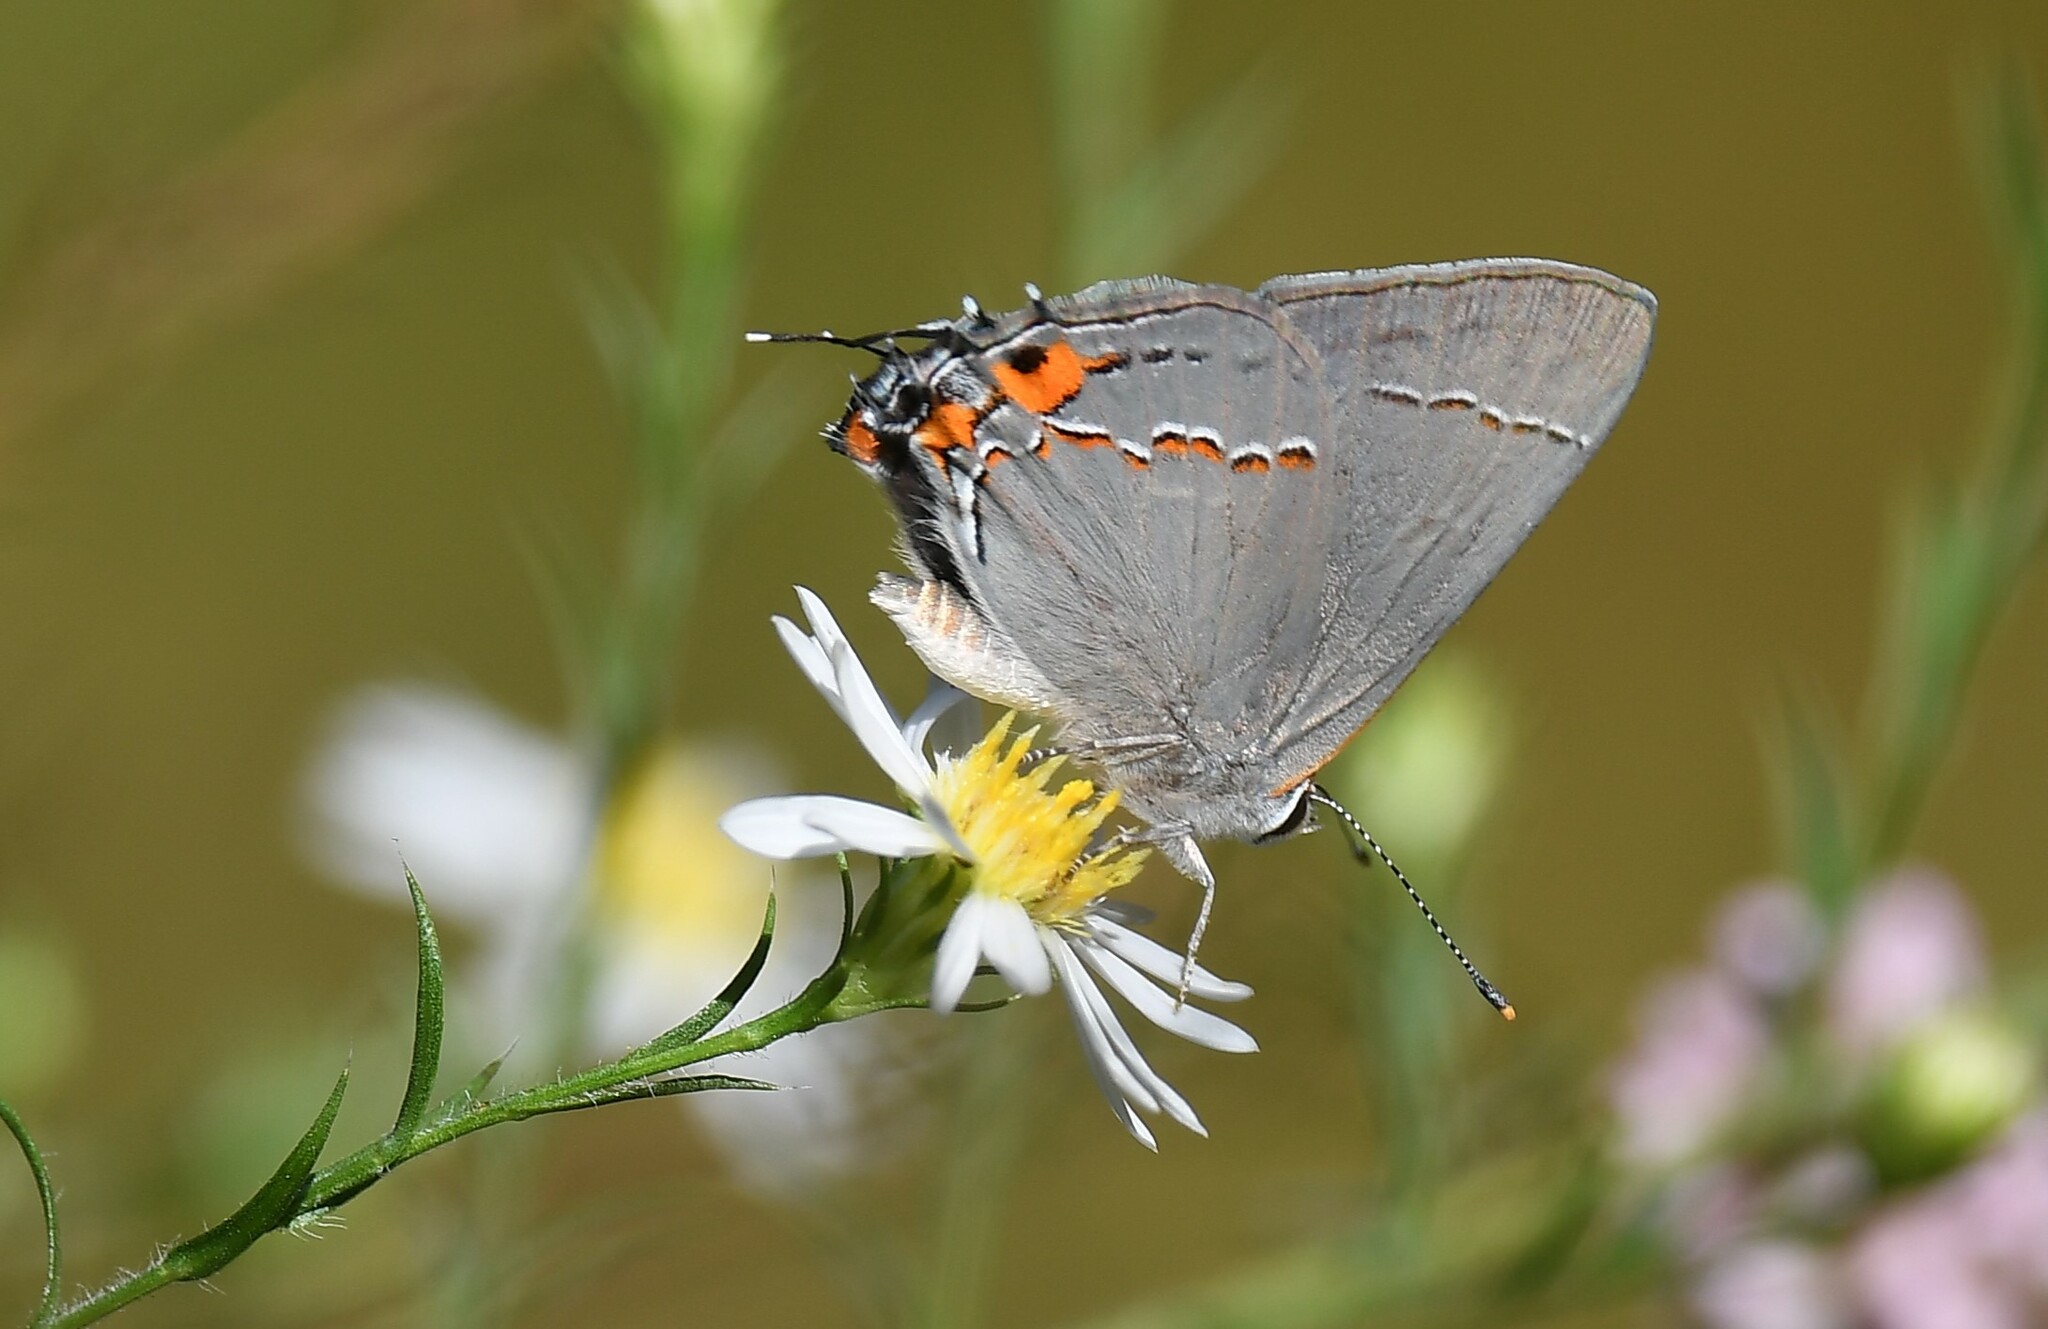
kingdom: Animalia
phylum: Arthropoda
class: Insecta
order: Lepidoptera
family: Lycaenidae
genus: Strymon
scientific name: Strymon melinus
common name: Gray hairstreak
